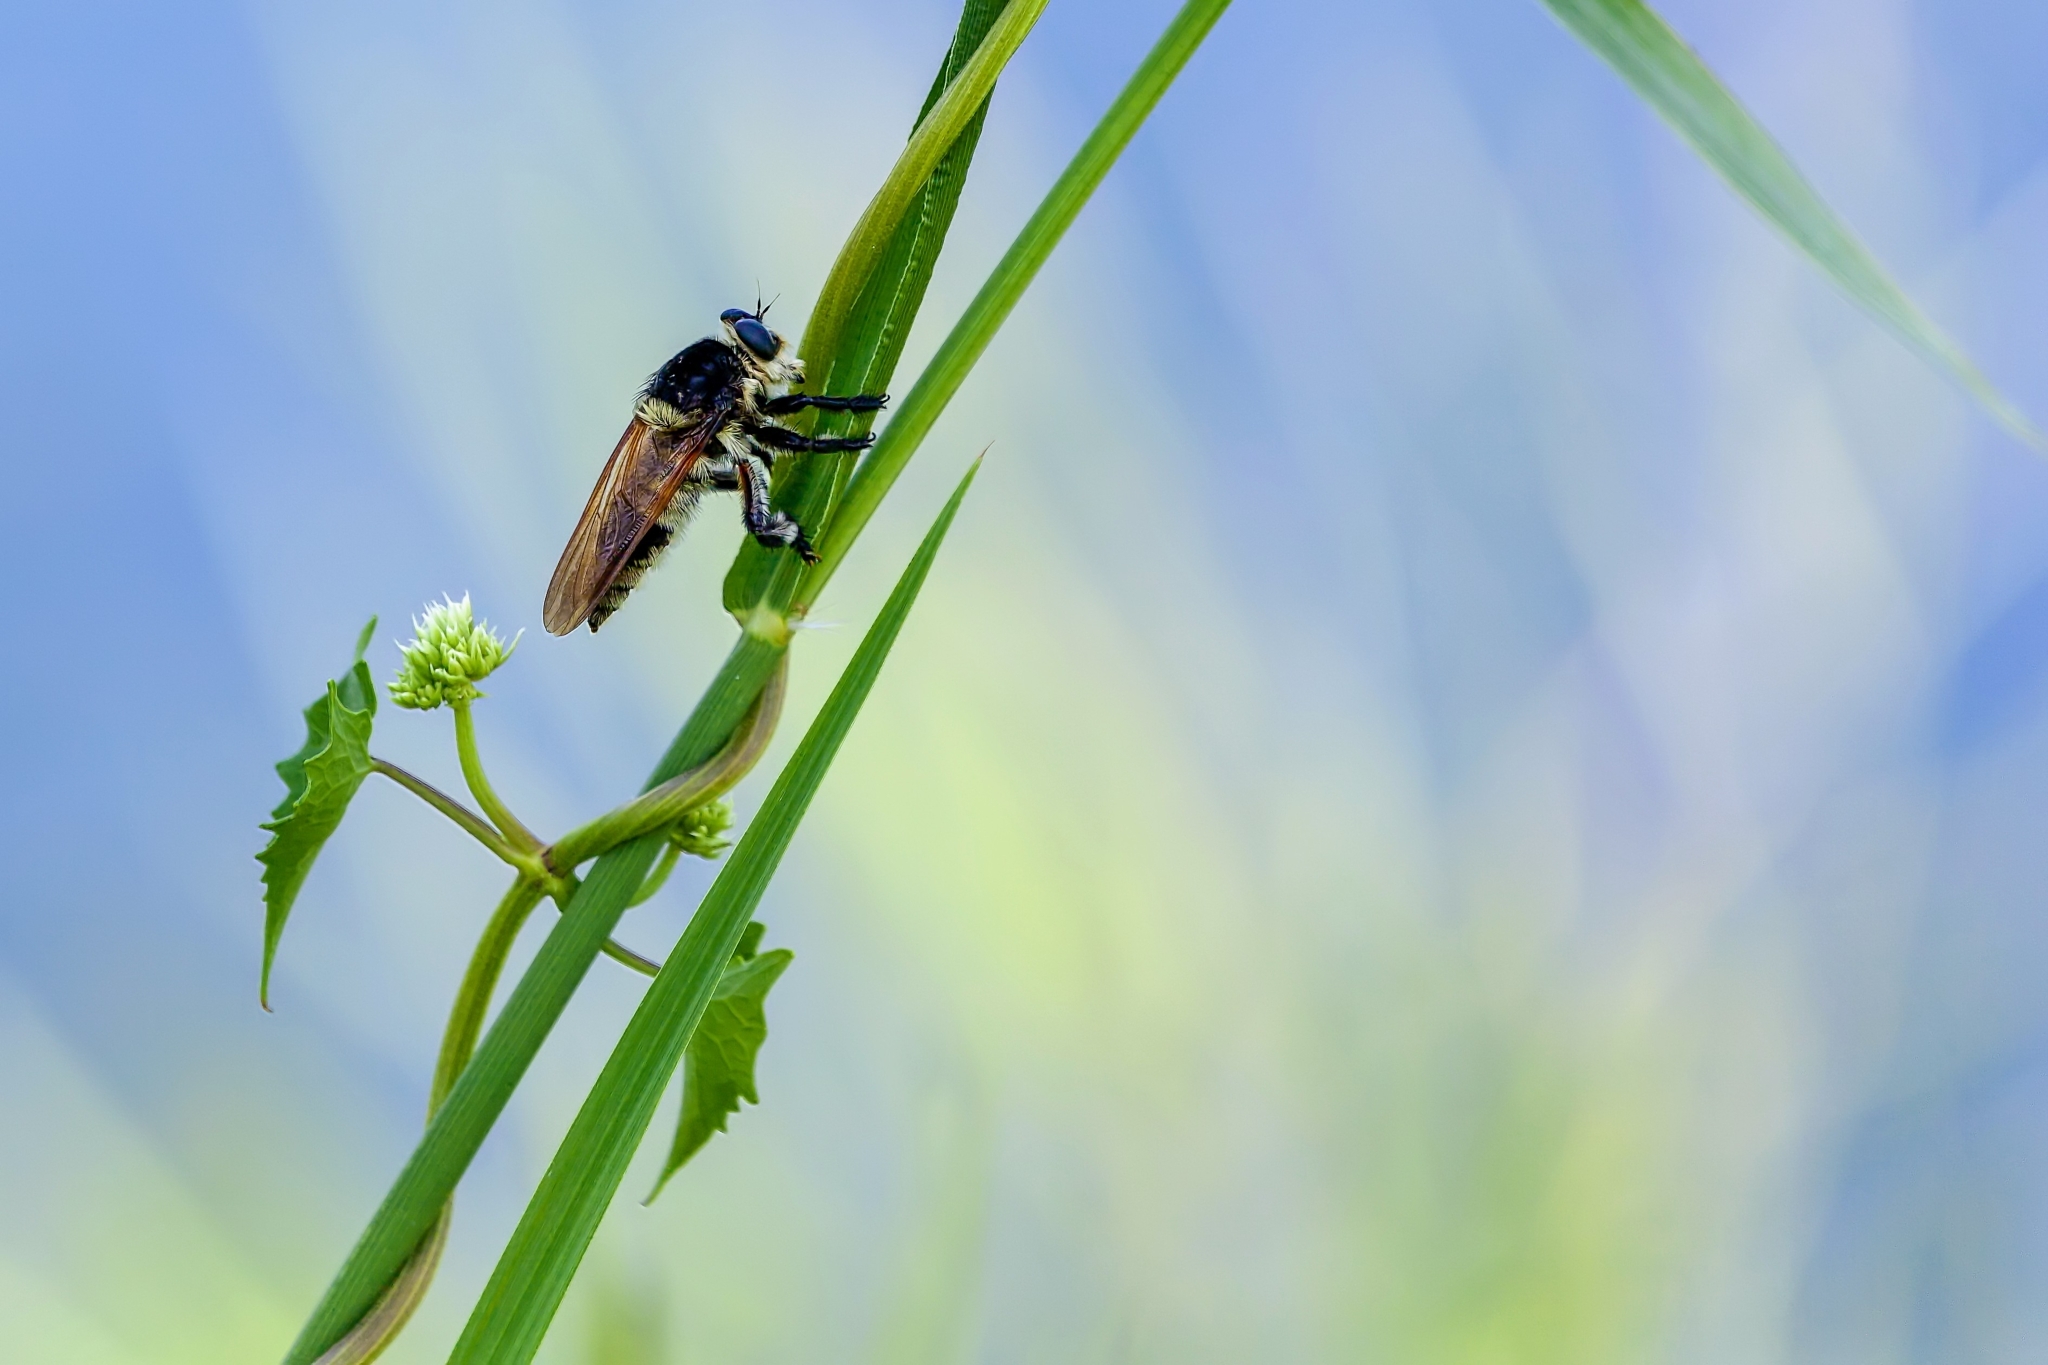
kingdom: Animalia
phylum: Arthropoda
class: Insecta
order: Diptera
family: Asilidae
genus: Mallophora
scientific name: Mallophora bomboides
